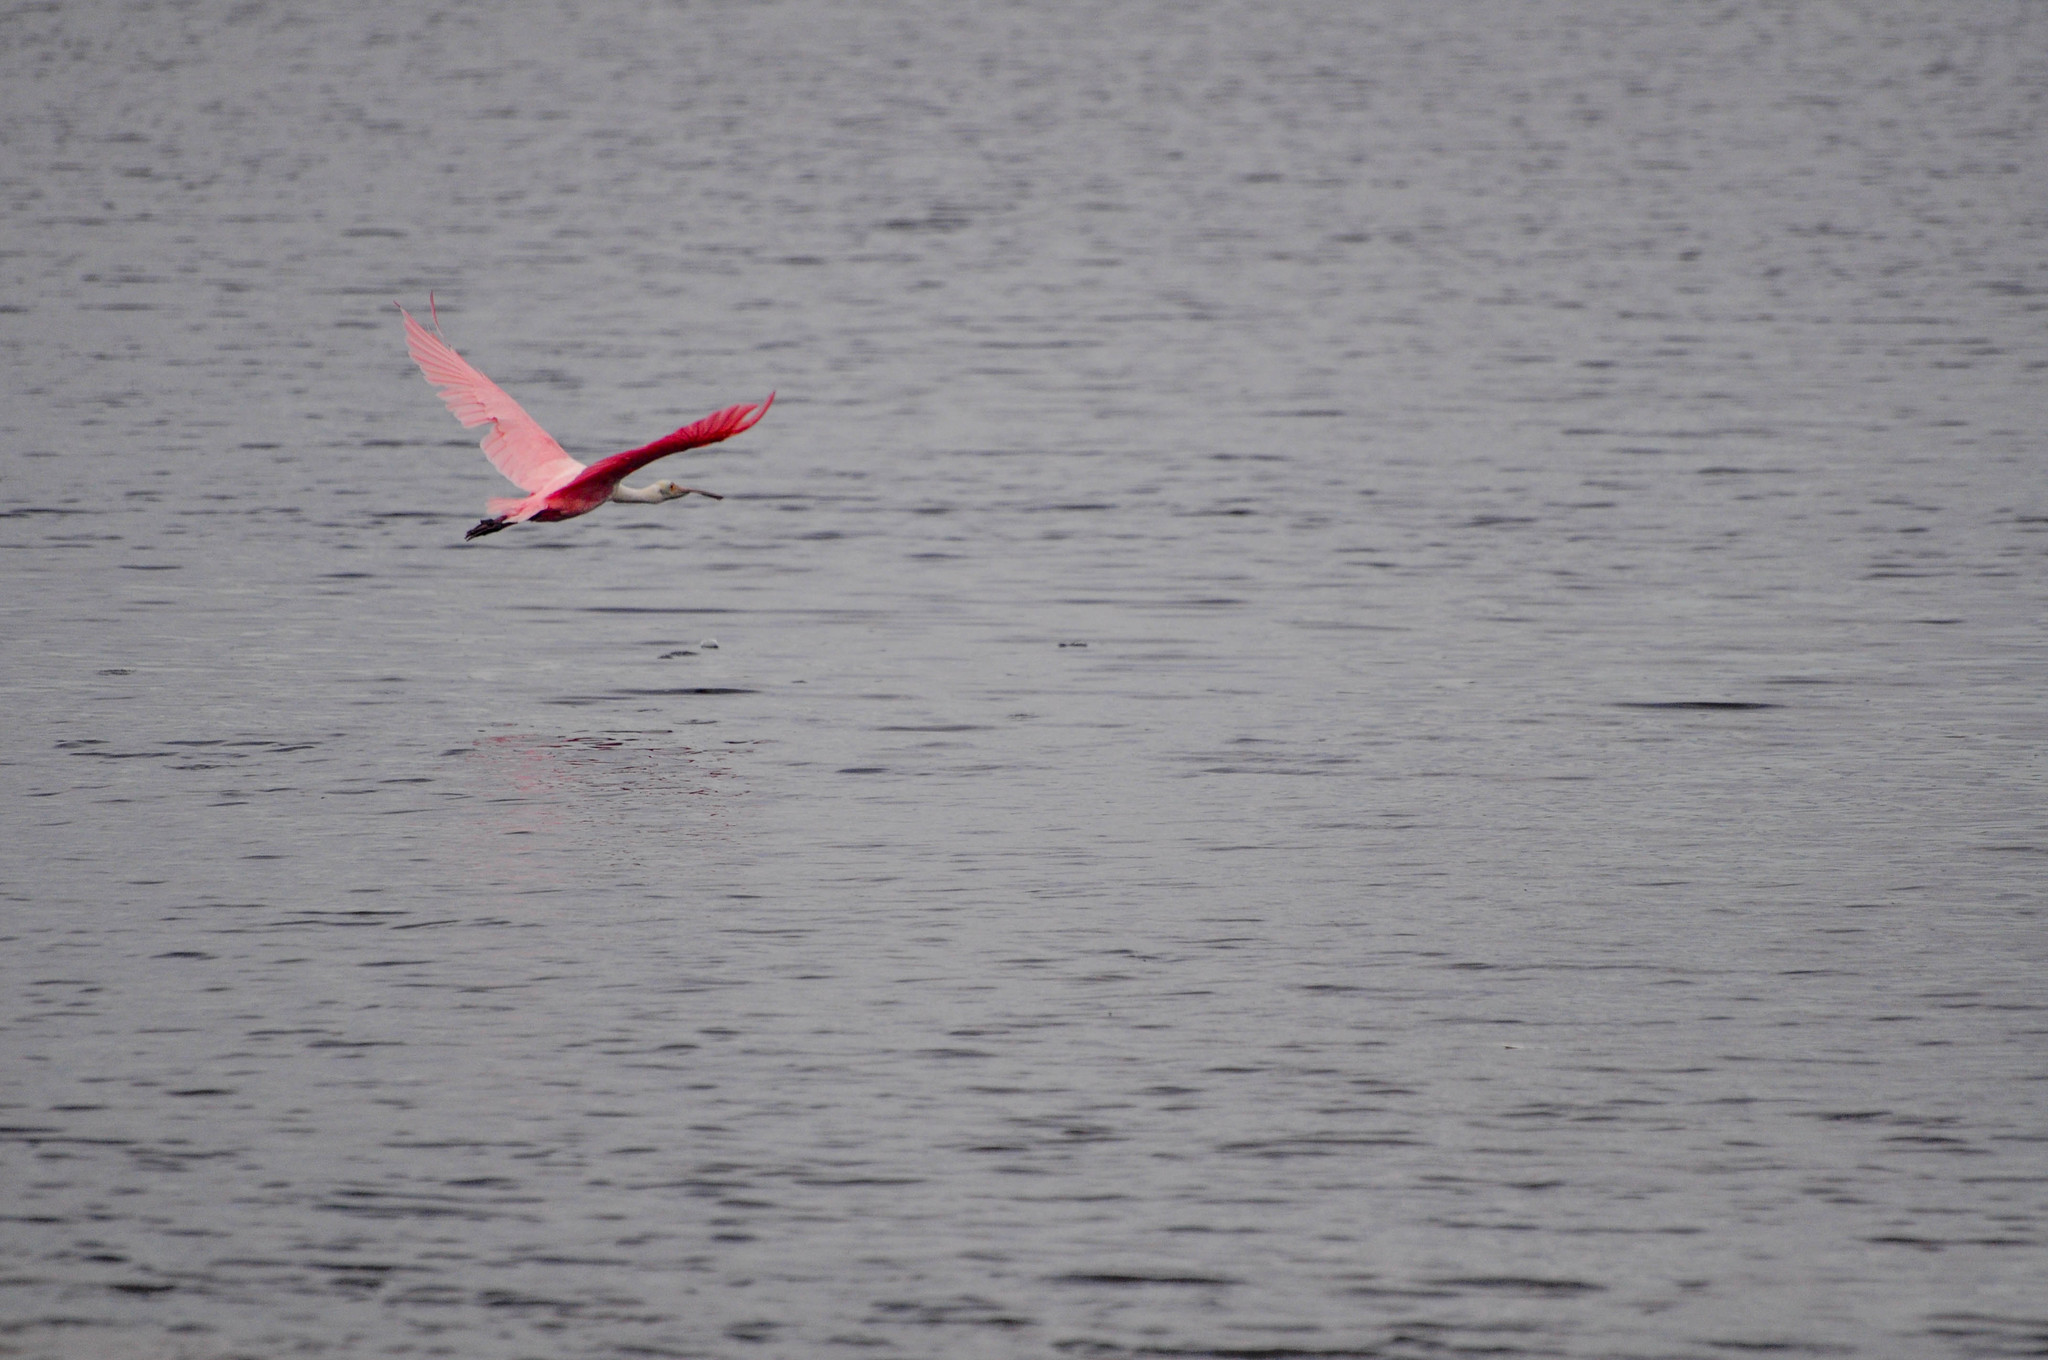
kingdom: Animalia
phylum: Chordata
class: Aves
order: Pelecaniformes
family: Threskiornithidae
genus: Platalea
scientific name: Platalea ajaja
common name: Roseate spoonbill
